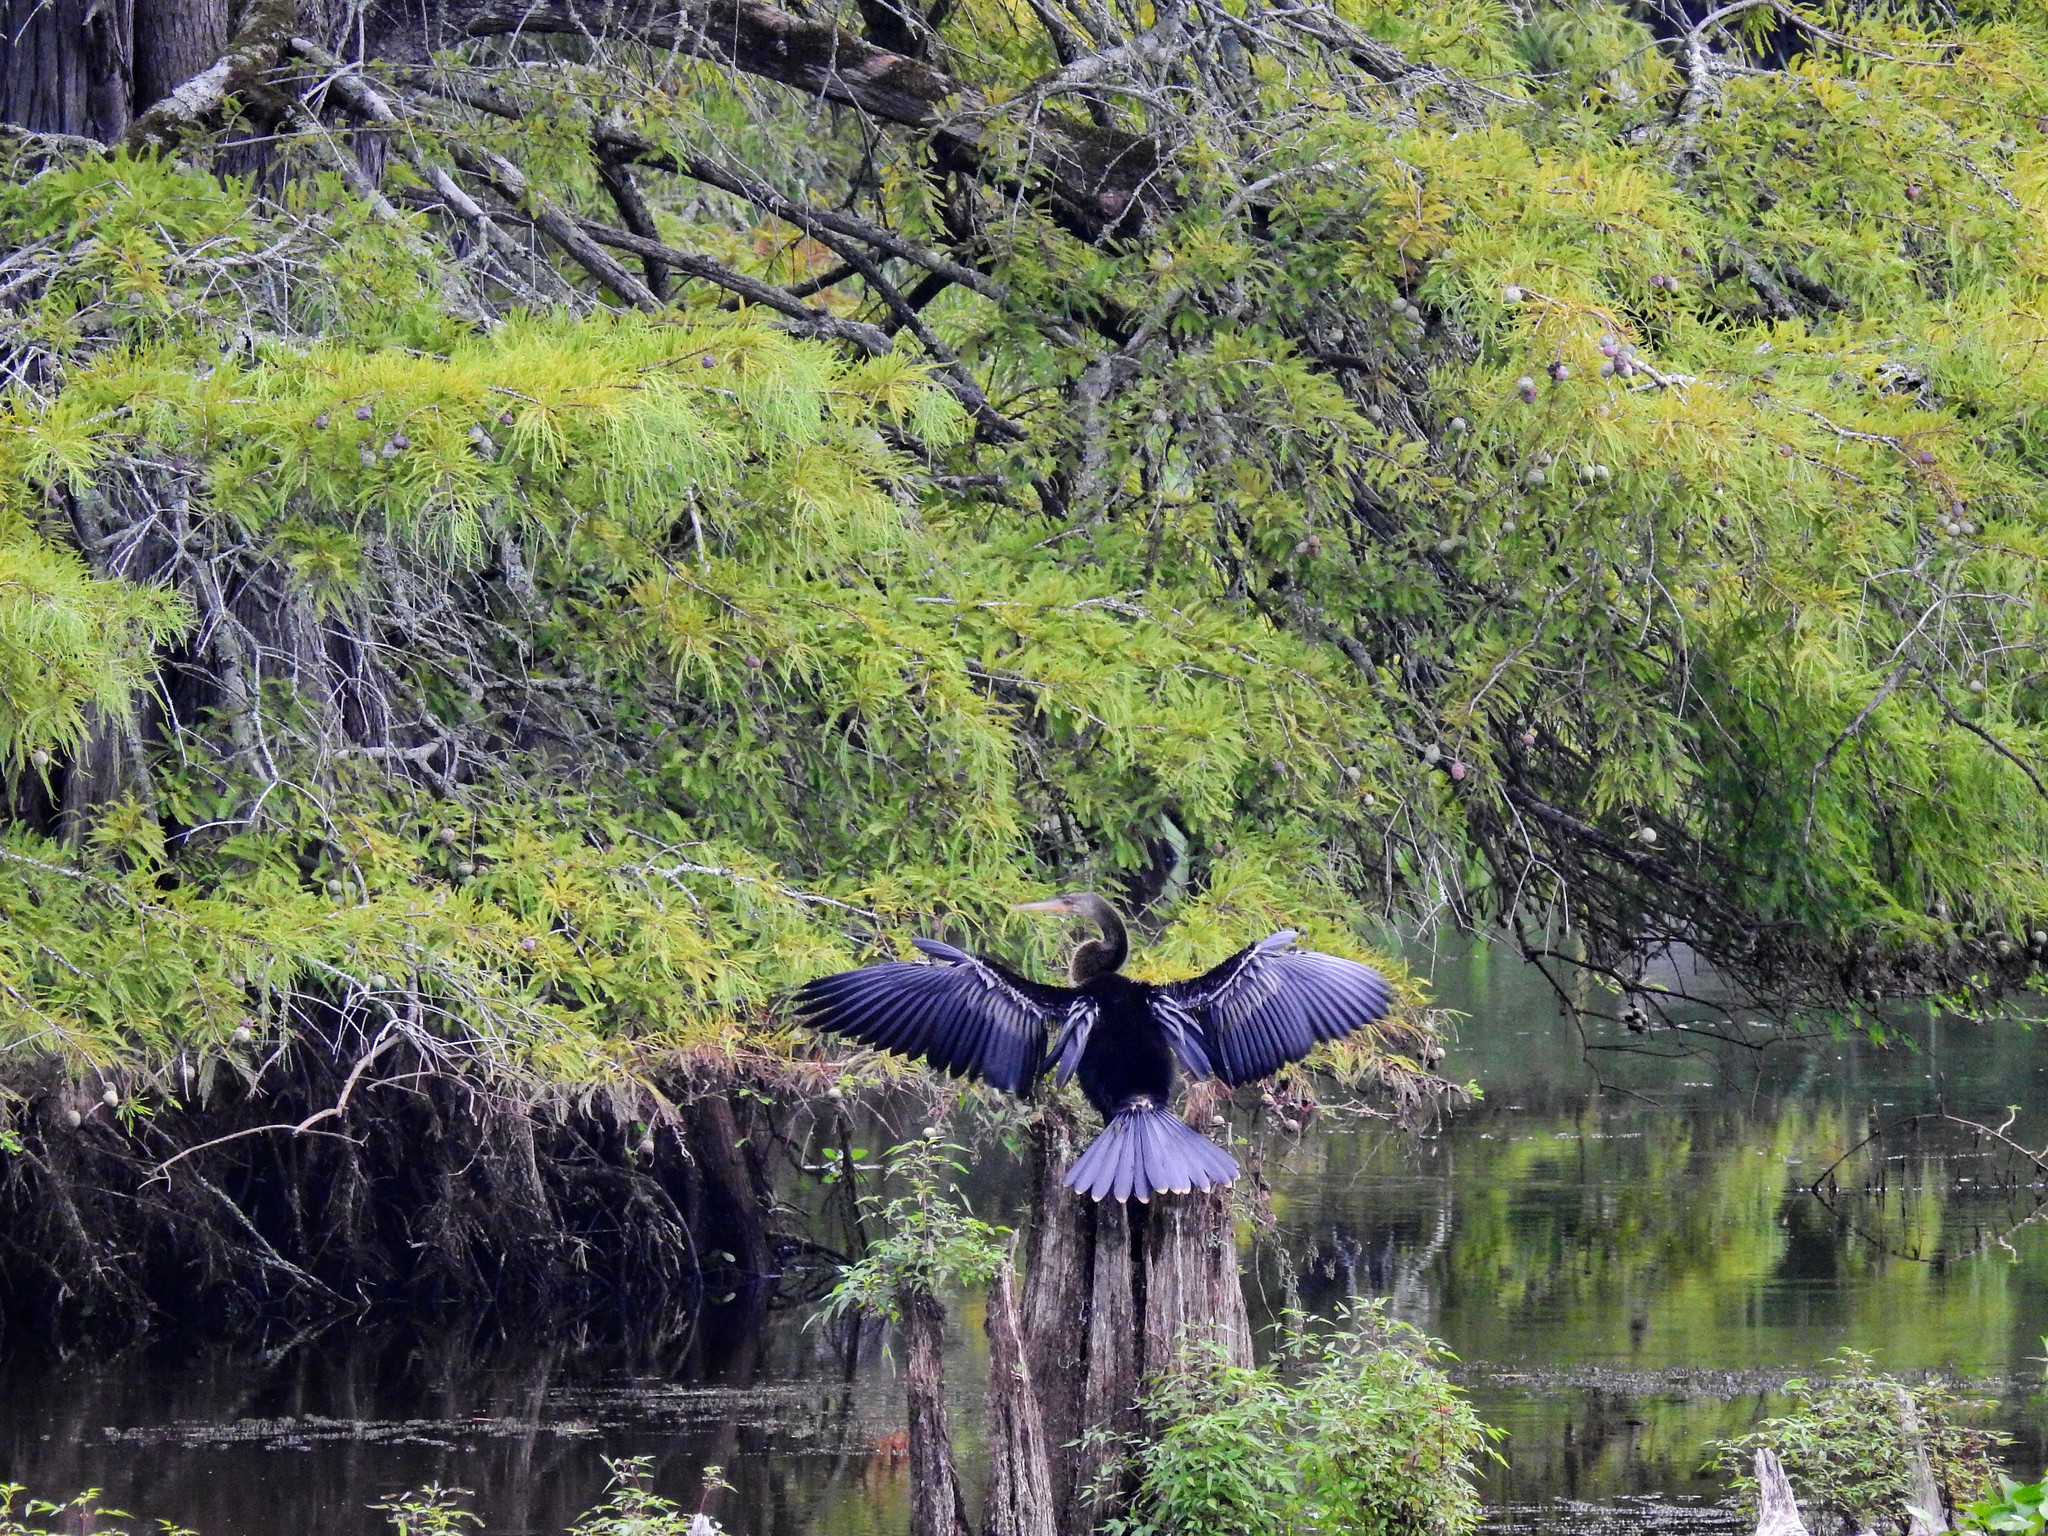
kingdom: Animalia
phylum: Chordata
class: Aves
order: Suliformes
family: Anhingidae
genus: Anhinga
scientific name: Anhinga anhinga
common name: Anhinga
